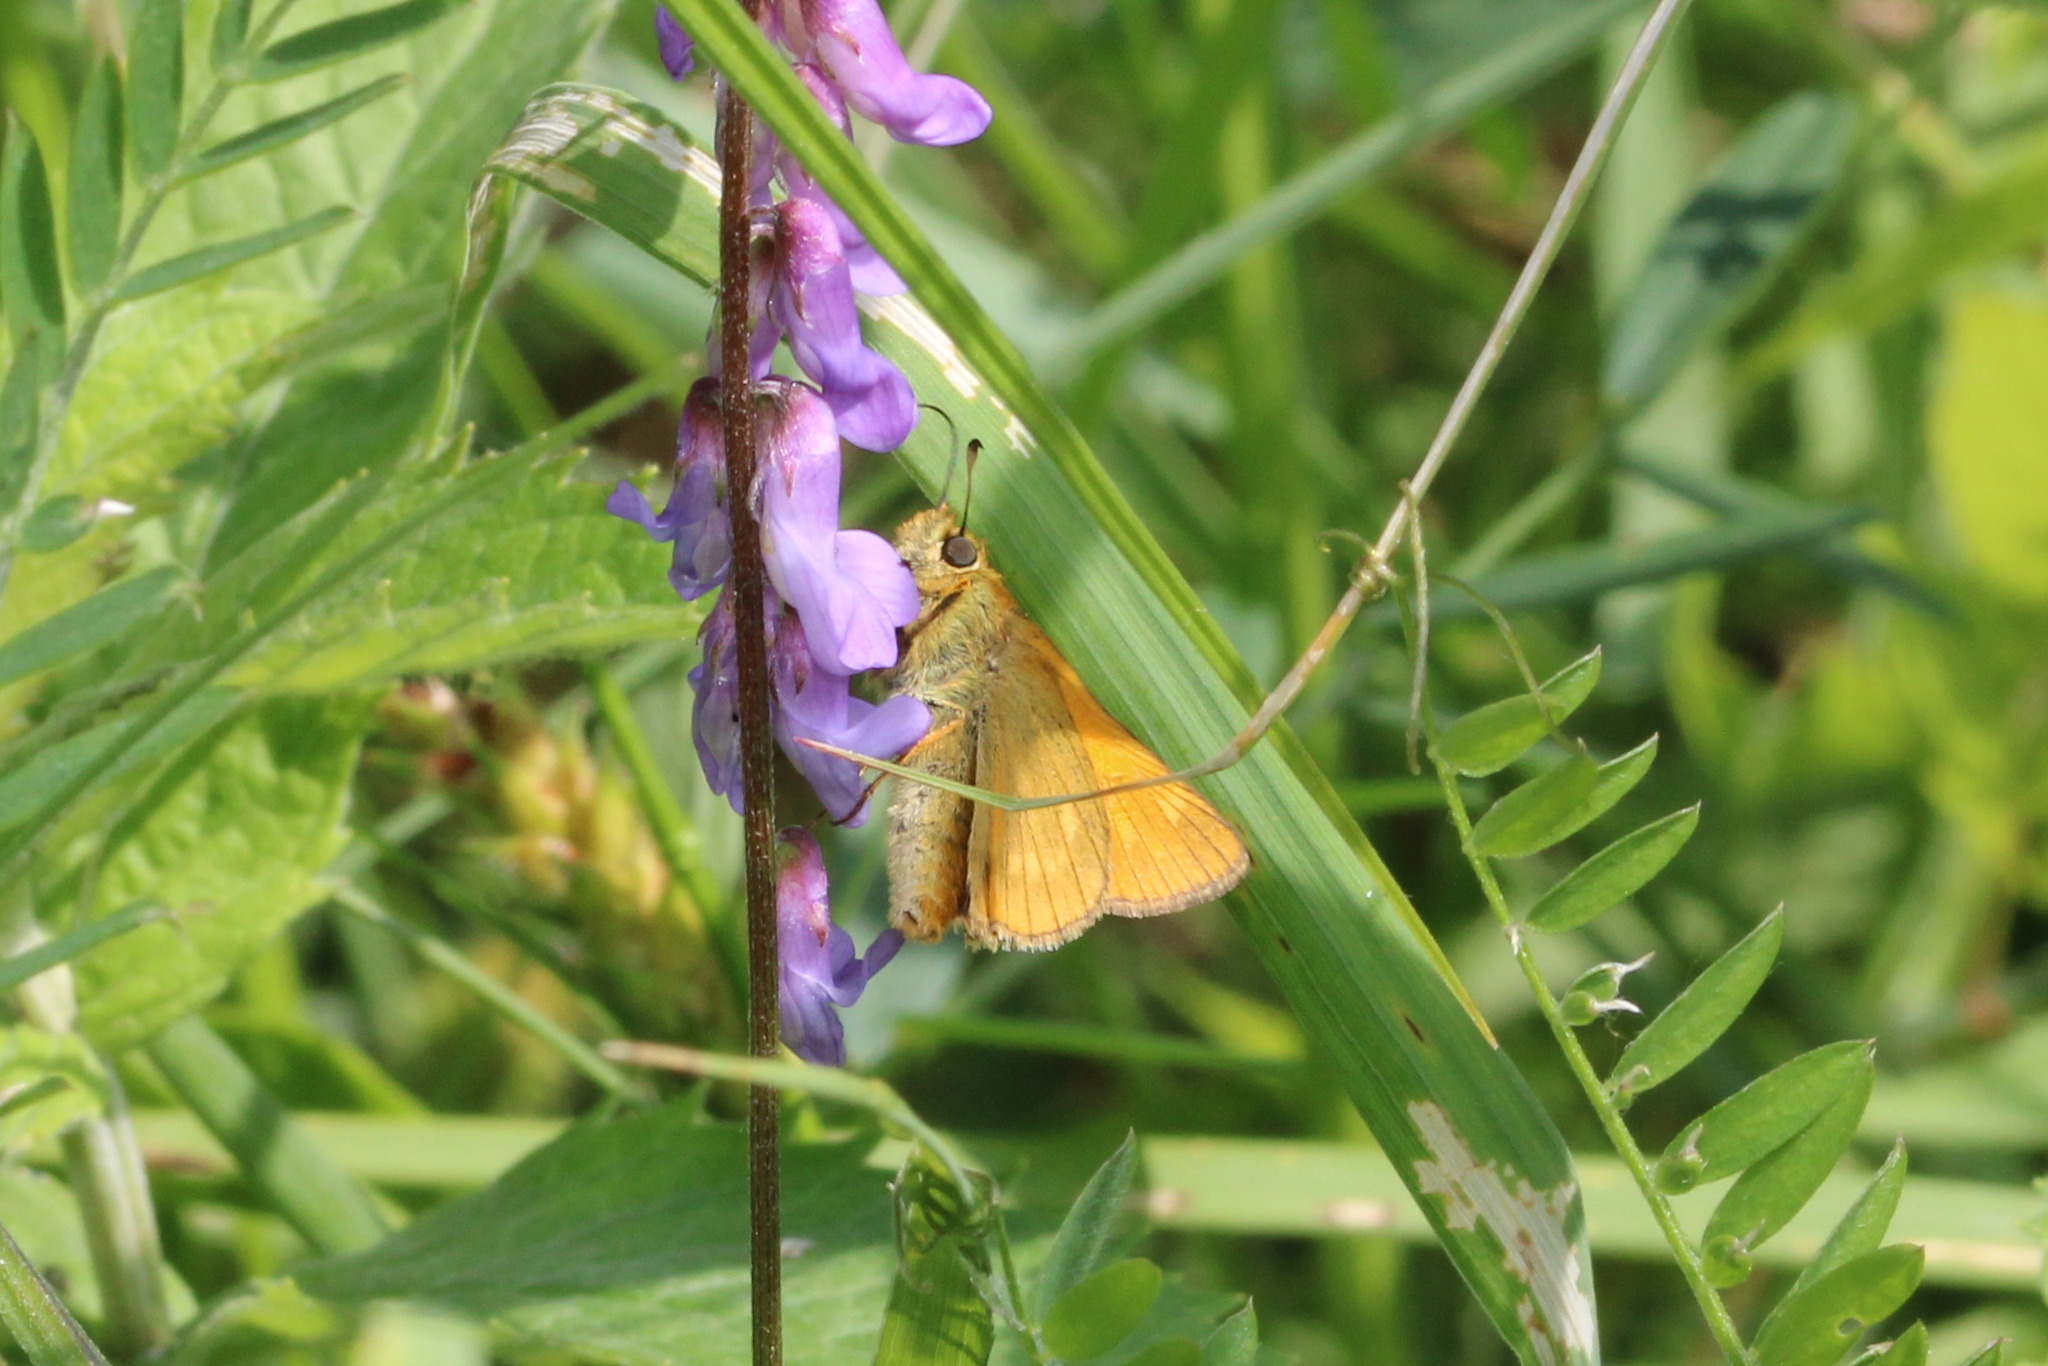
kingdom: Animalia
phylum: Arthropoda
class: Insecta
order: Lepidoptera
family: Hesperiidae
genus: Ochlodes
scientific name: Ochlodes venata
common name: Large skipper
